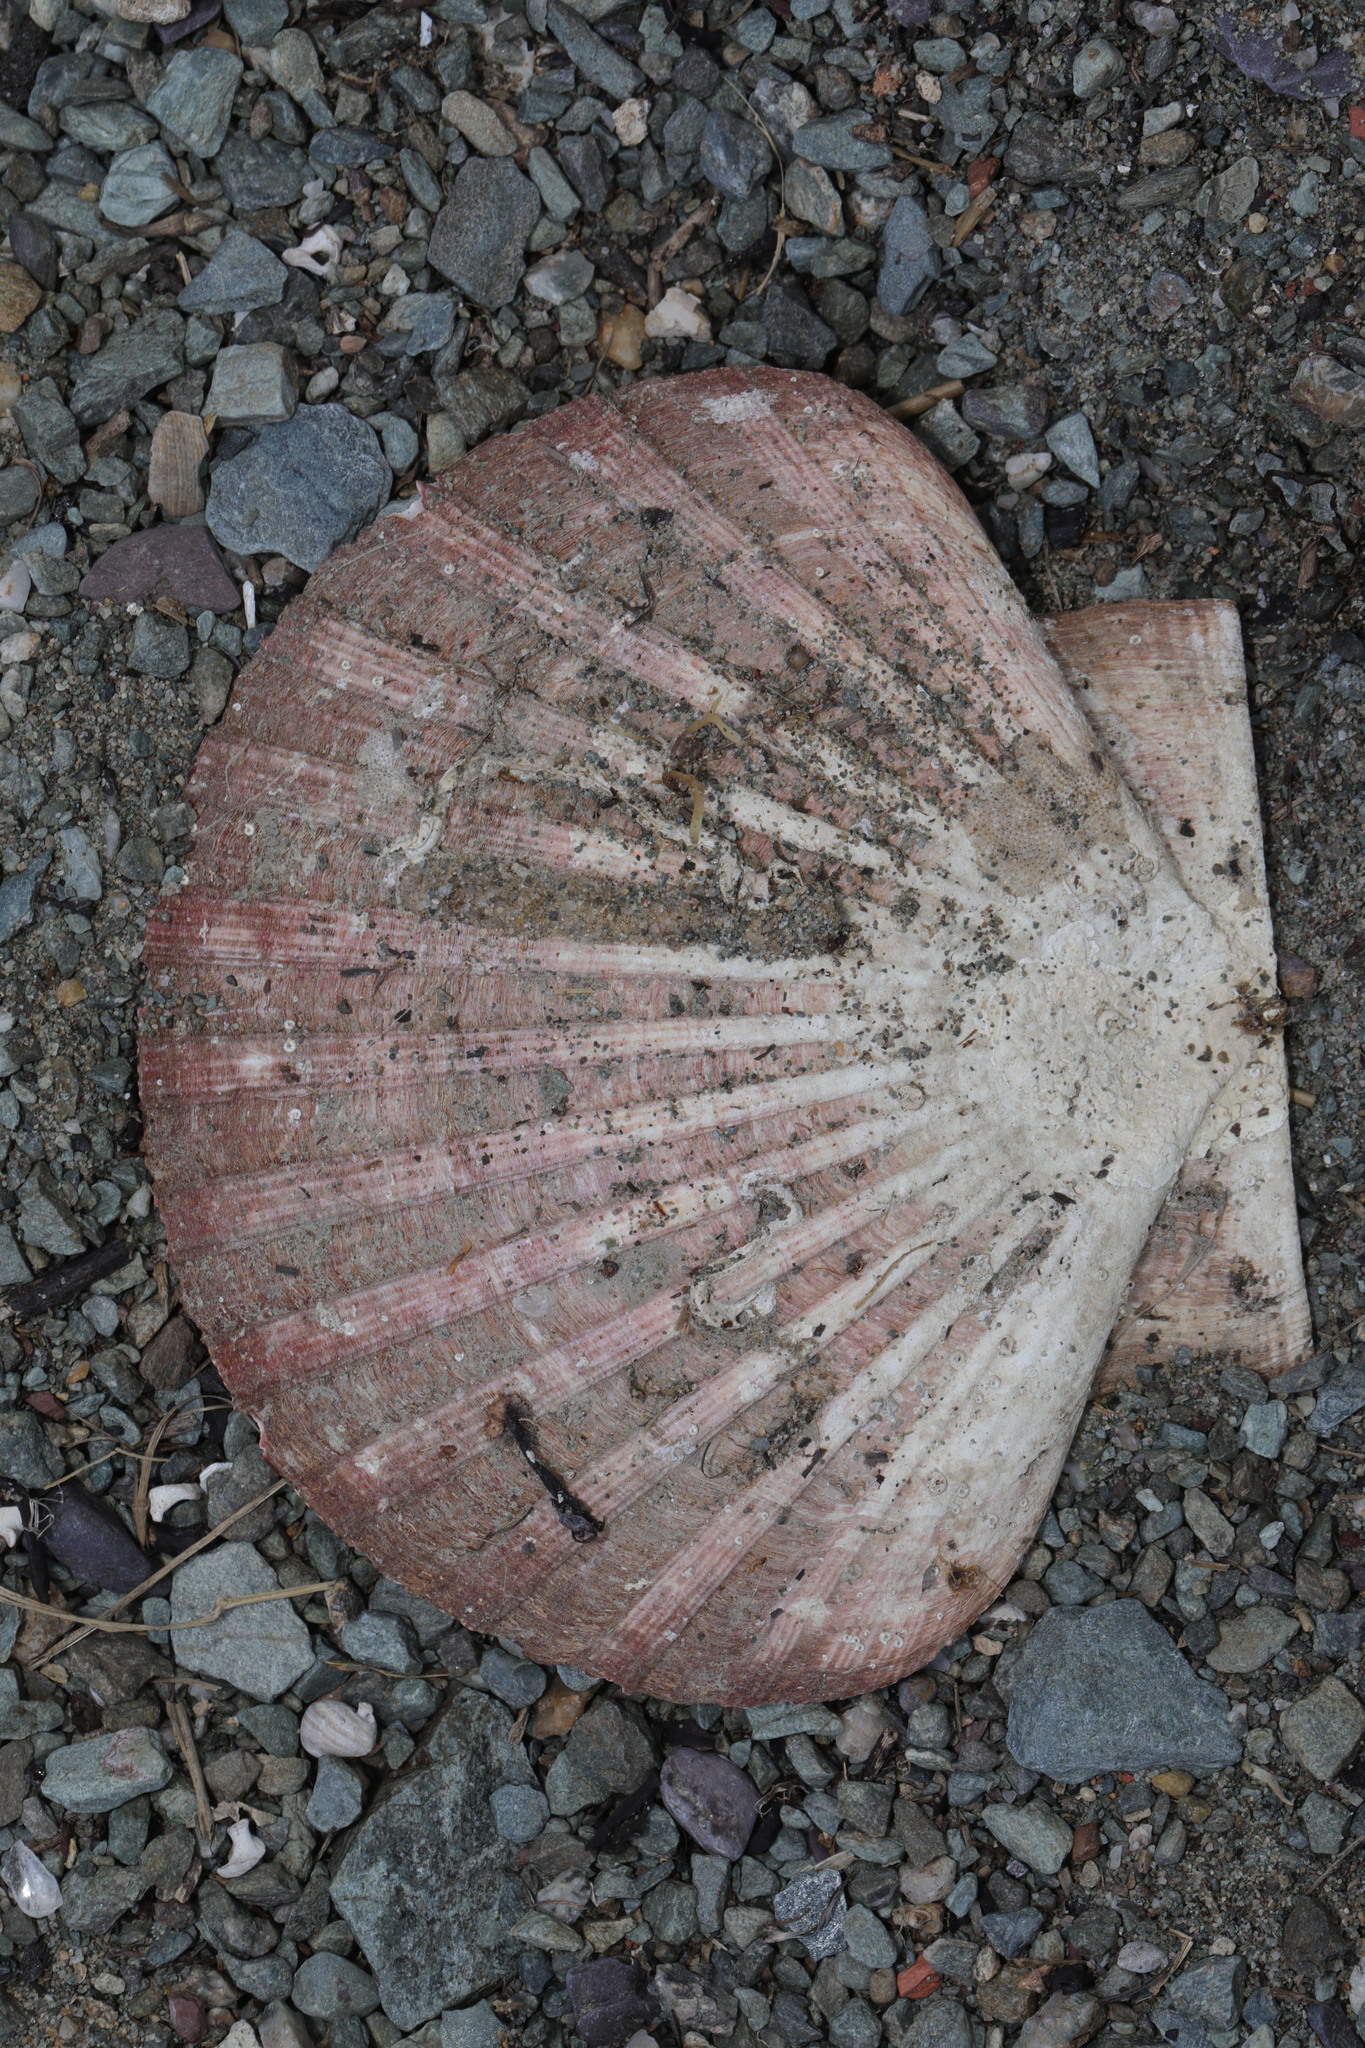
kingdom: Animalia
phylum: Mollusca
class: Bivalvia
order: Pectinida
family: Pectinidae
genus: Pecten
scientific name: Pecten maximus
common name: Great scallop
